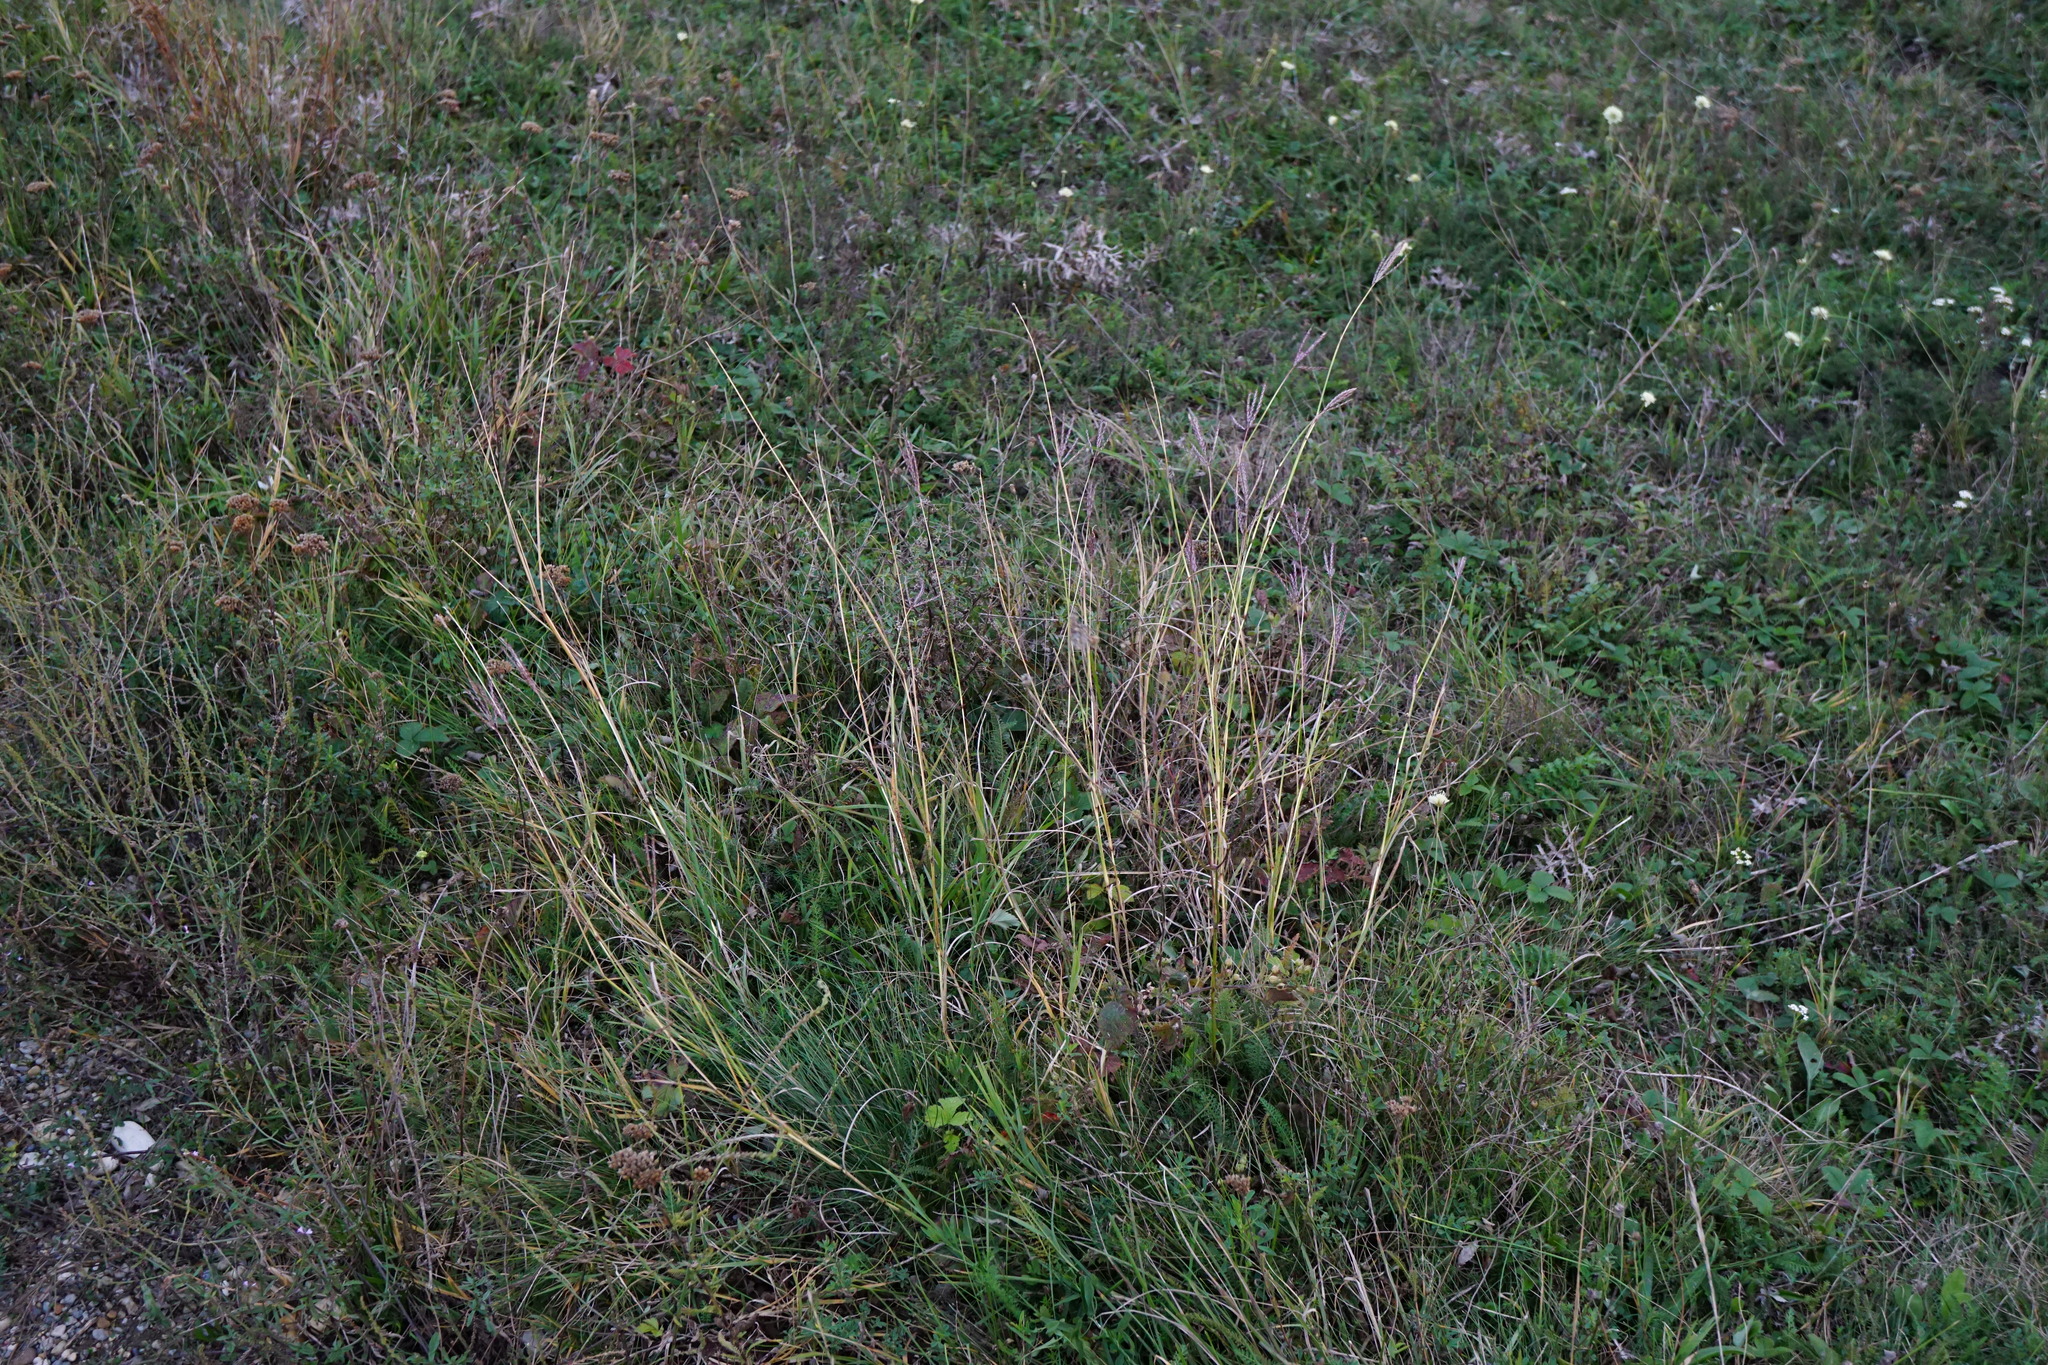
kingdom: Plantae
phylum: Tracheophyta
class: Liliopsida
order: Poales
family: Poaceae
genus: Bothriochloa
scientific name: Bothriochloa ischaemum
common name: Yellow bluestem
